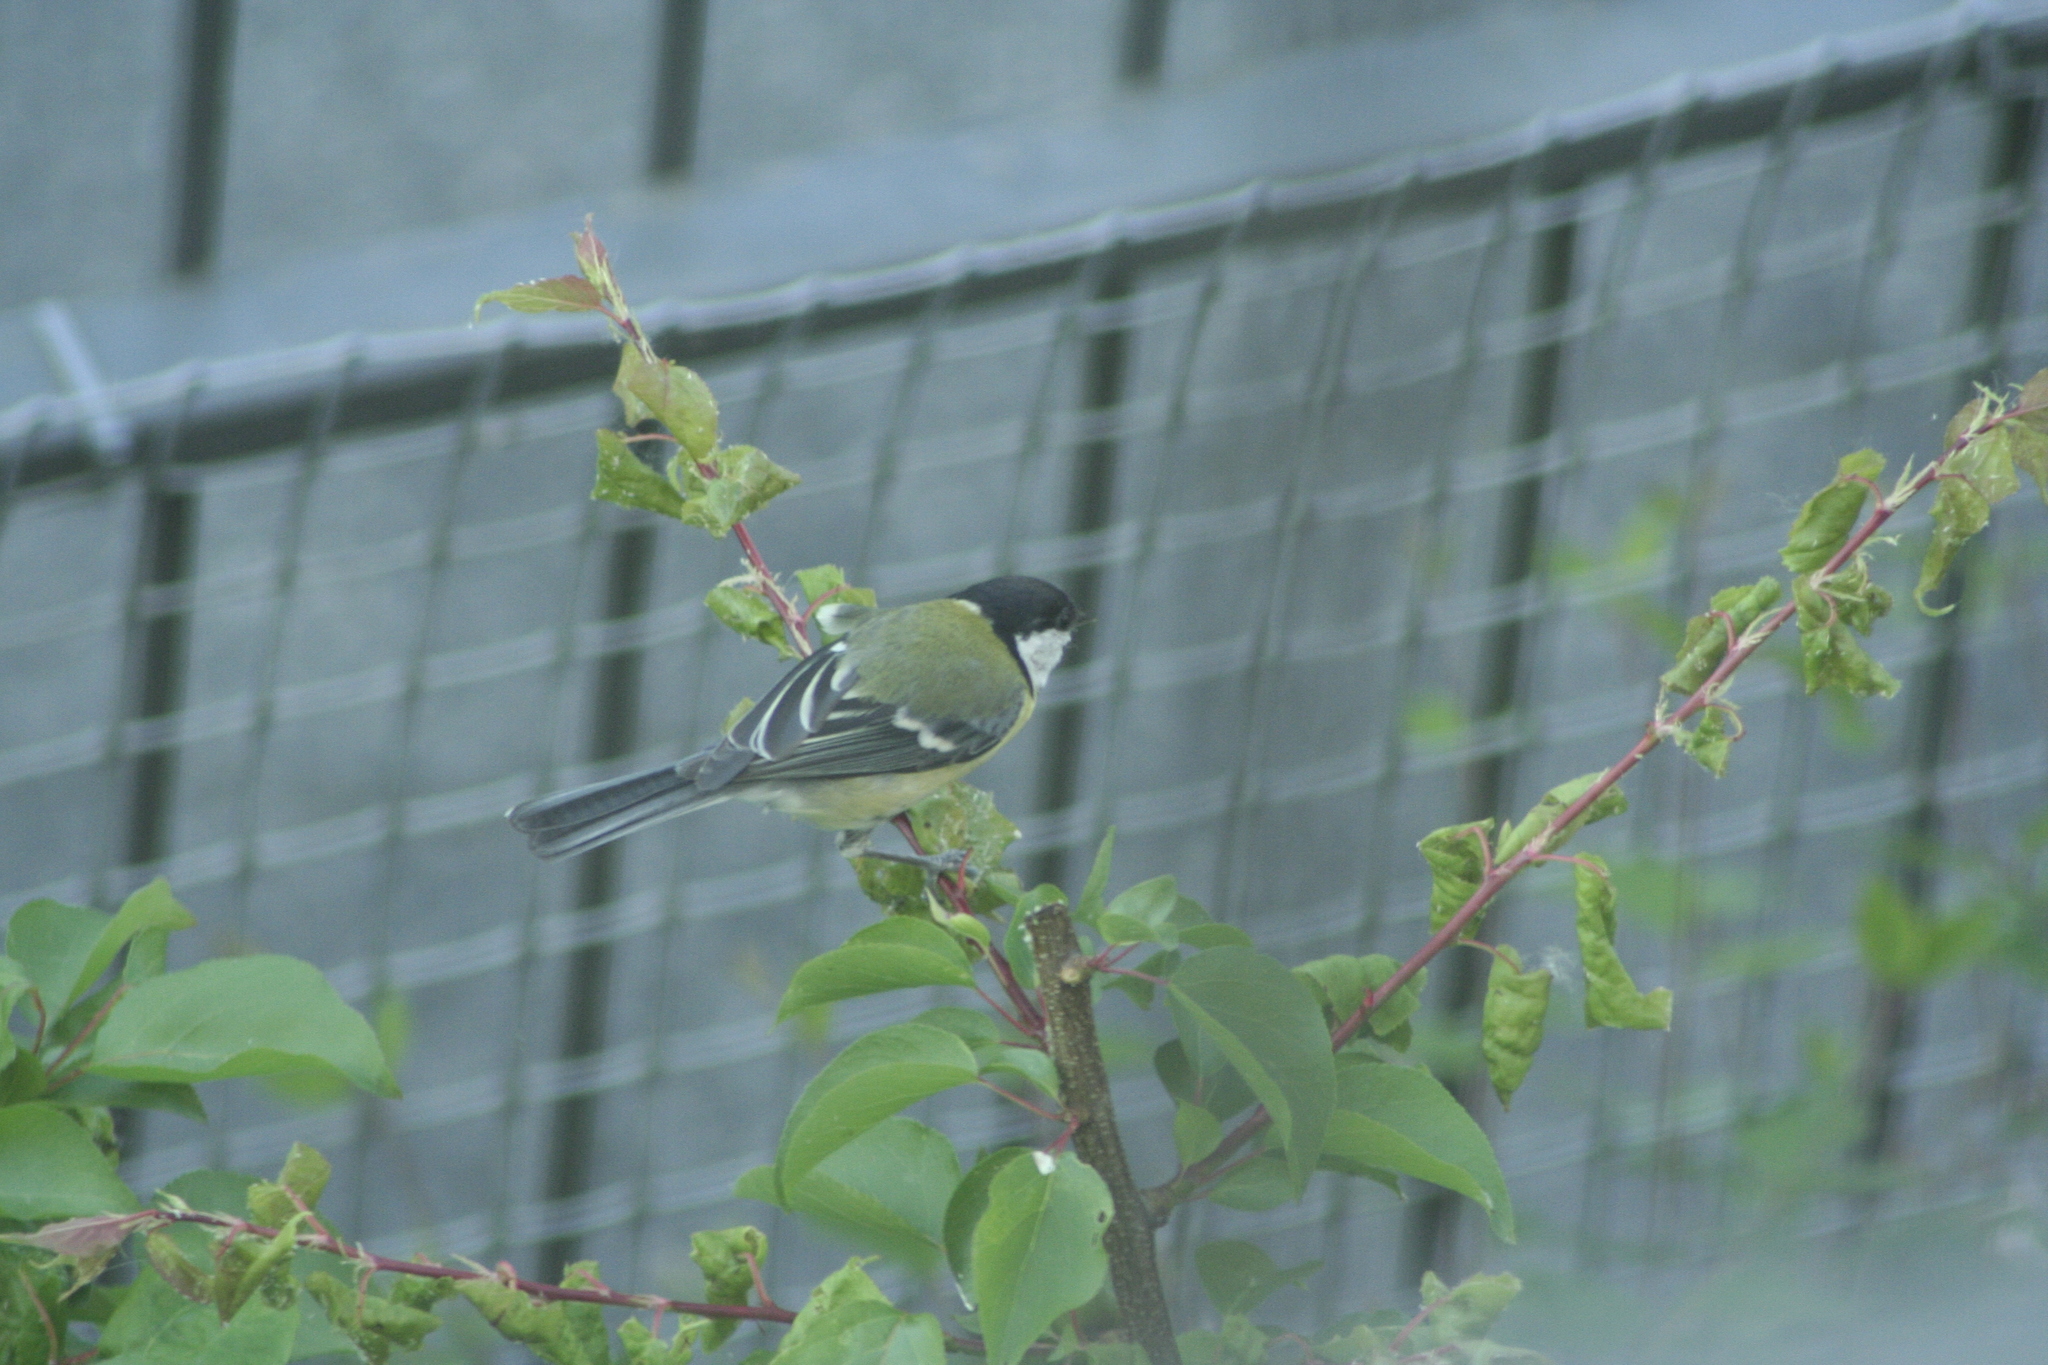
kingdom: Animalia
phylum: Chordata
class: Aves
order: Passeriformes
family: Paridae
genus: Parus
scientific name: Parus major
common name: Great tit
